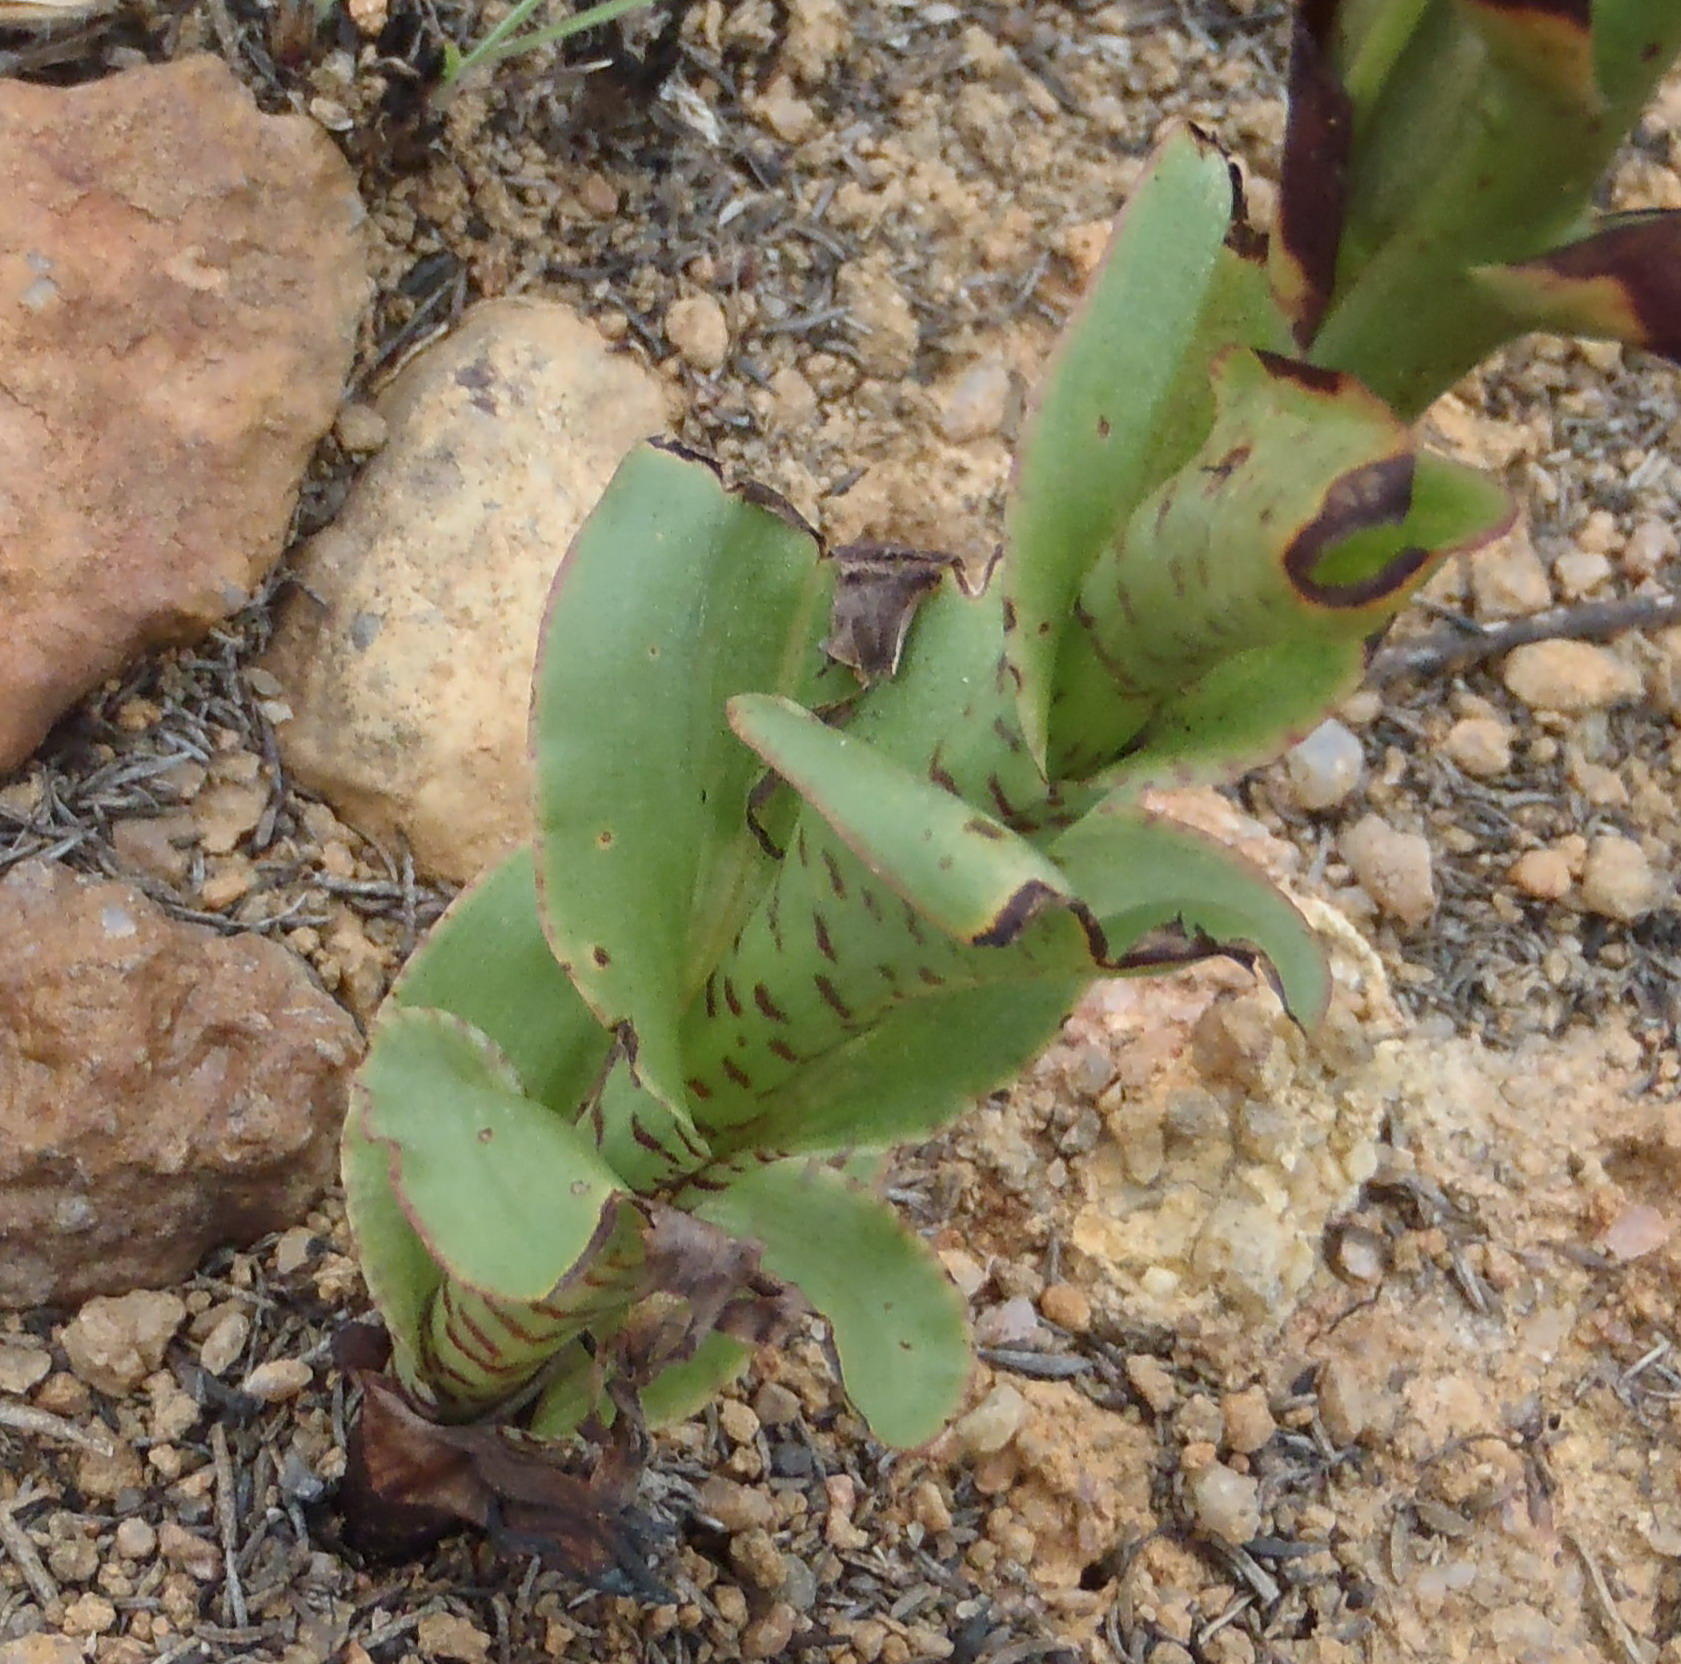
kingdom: Plantae
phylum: Tracheophyta
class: Liliopsida
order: Asparagales
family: Orchidaceae
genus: Disa
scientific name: Disa cornuta
